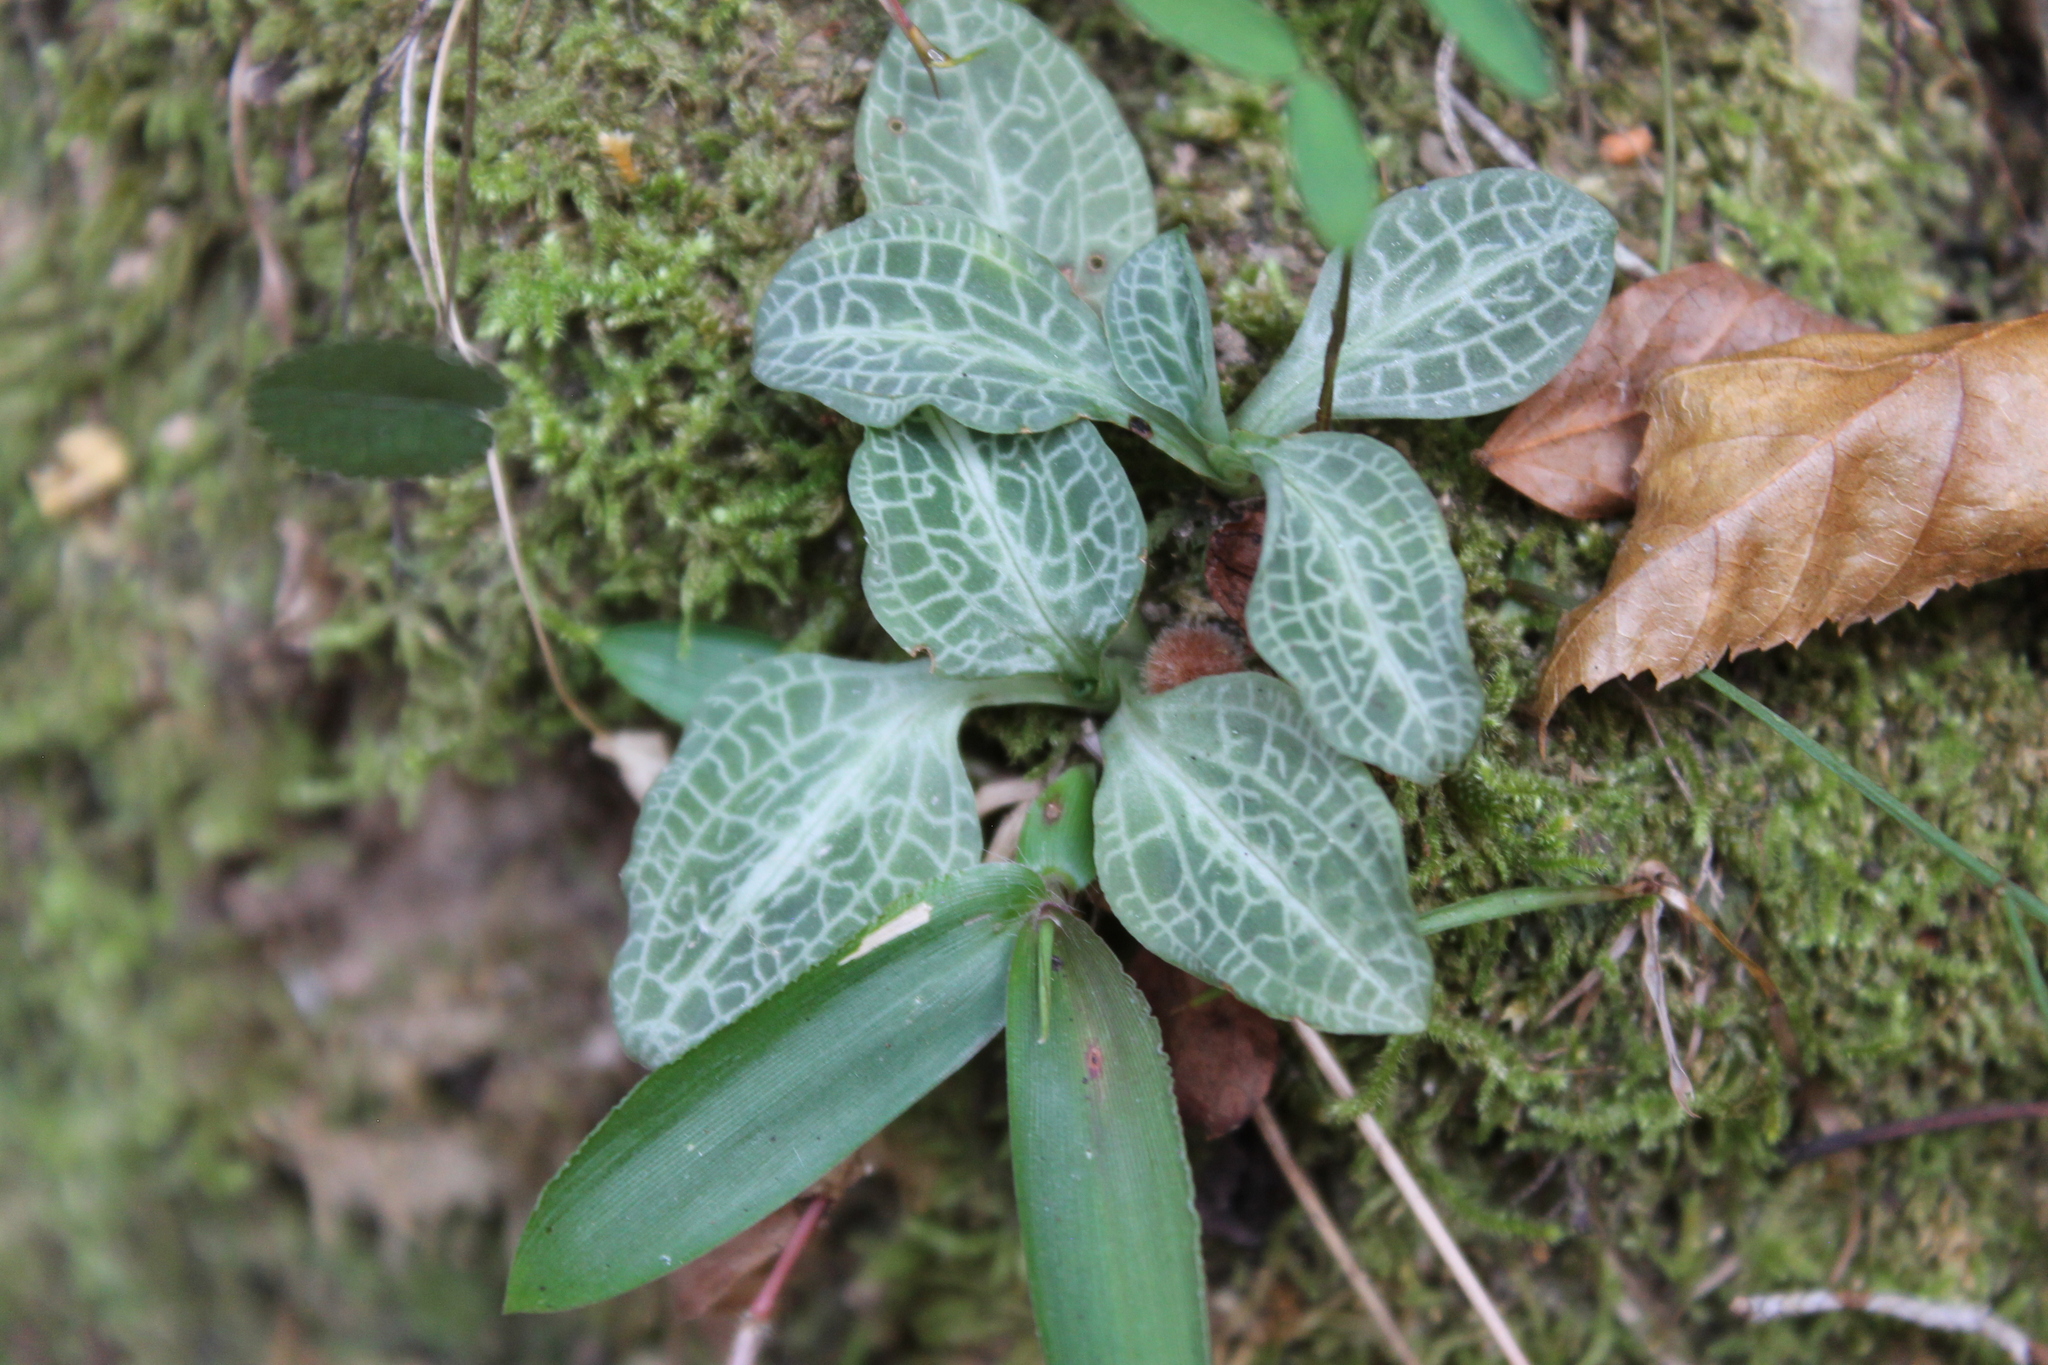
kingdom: Plantae
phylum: Tracheophyta
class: Liliopsida
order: Asparagales
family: Orchidaceae
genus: Goodyera
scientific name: Goodyera pubescens
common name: Downy rattlesnake-plantain
